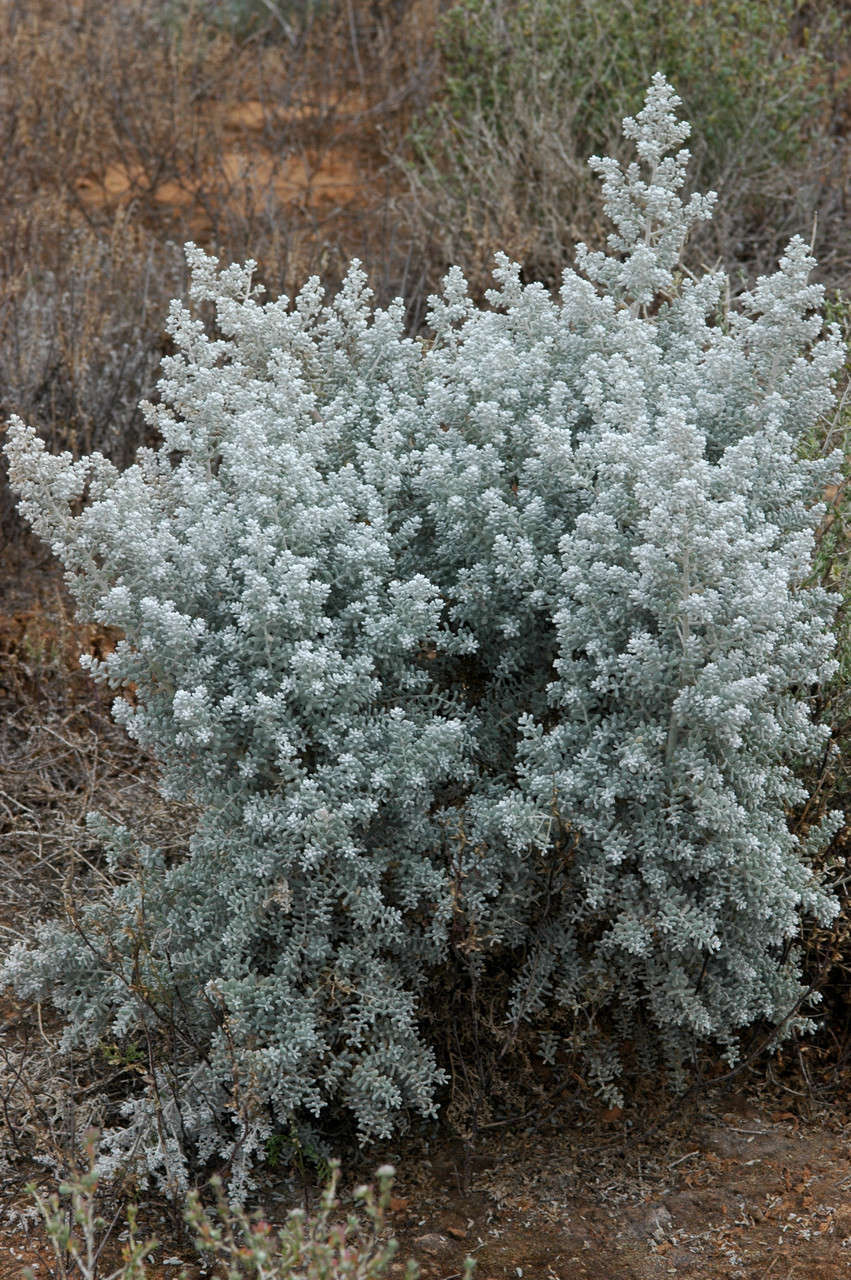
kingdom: Plantae
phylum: Tracheophyta
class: Magnoliopsida
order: Caryophyllales
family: Amaranthaceae
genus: Maireana
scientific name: Maireana sedifolia
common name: Hoary bluebush
